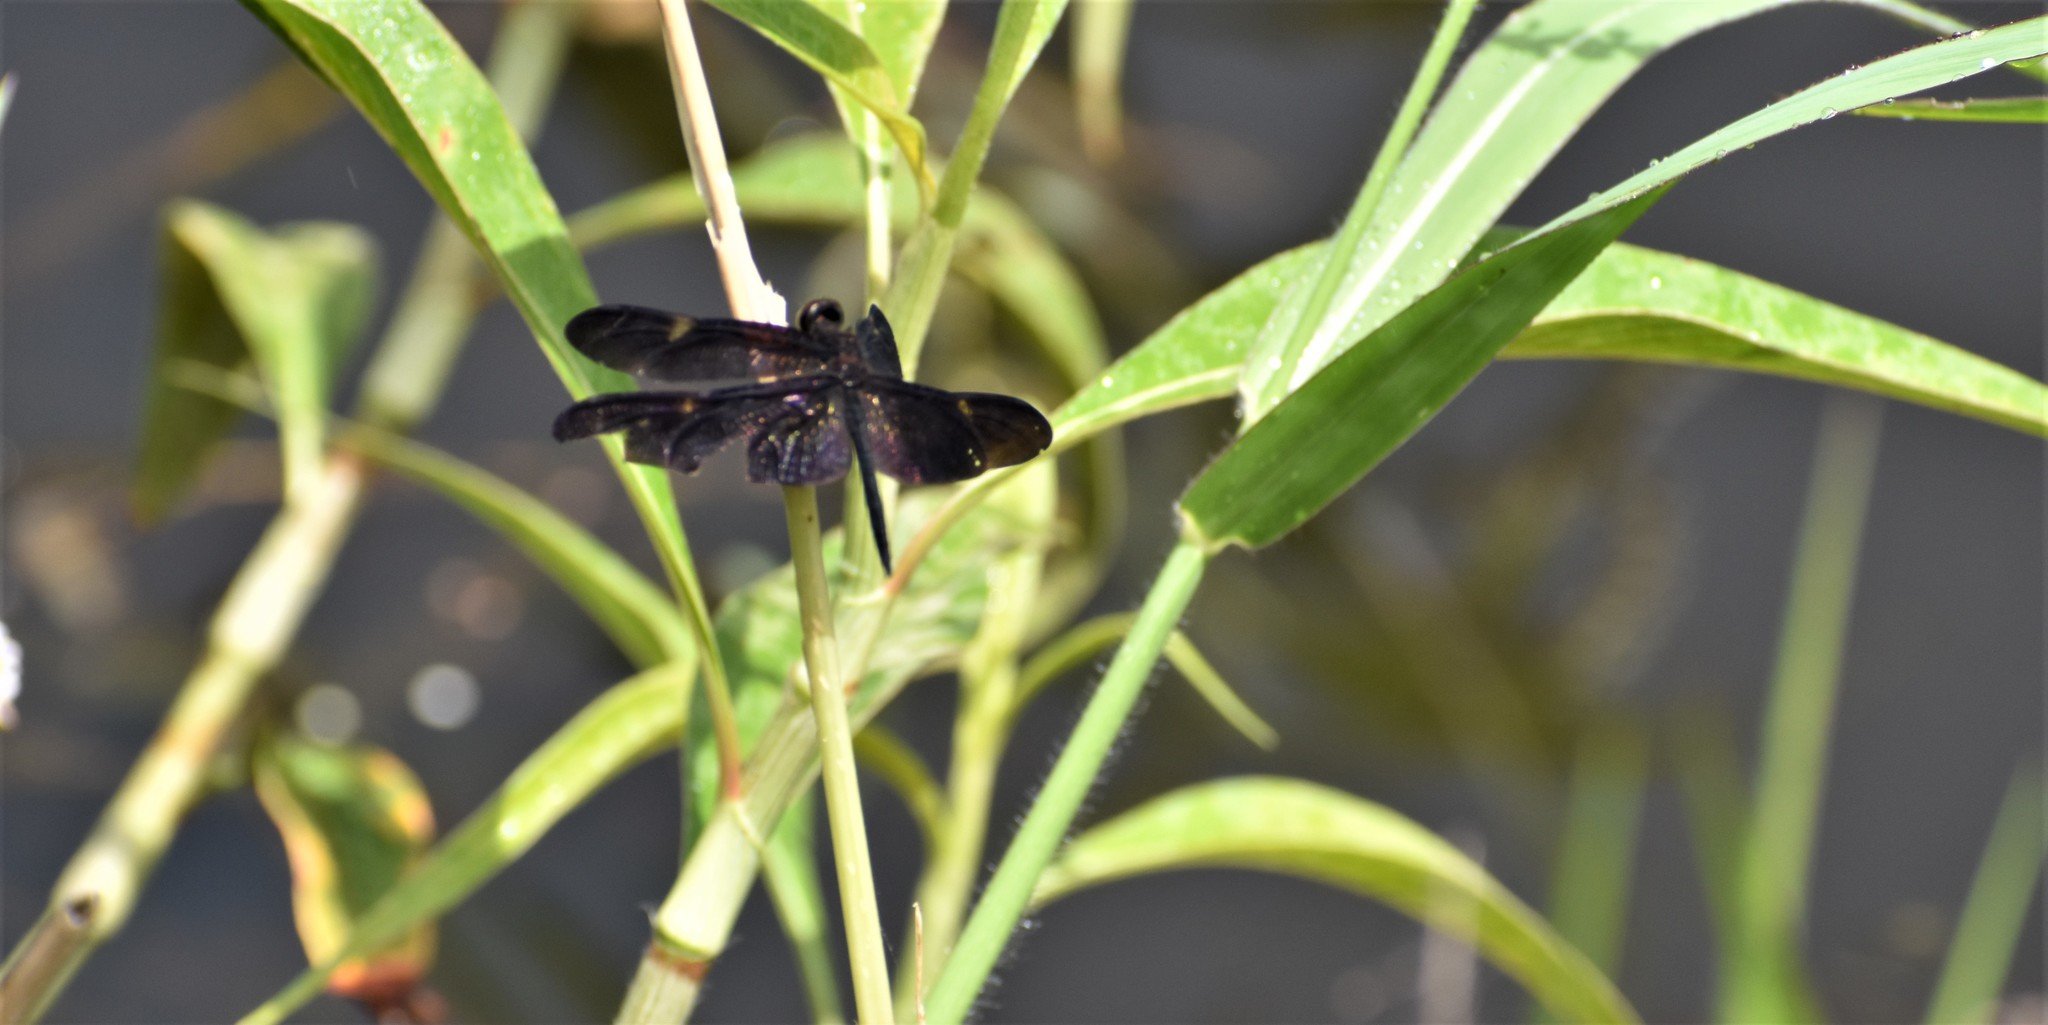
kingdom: Animalia
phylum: Arthropoda
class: Insecta
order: Odonata
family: Libellulidae
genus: Rhyothemis
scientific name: Rhyothemis princeps
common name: Sapphire flutterer
